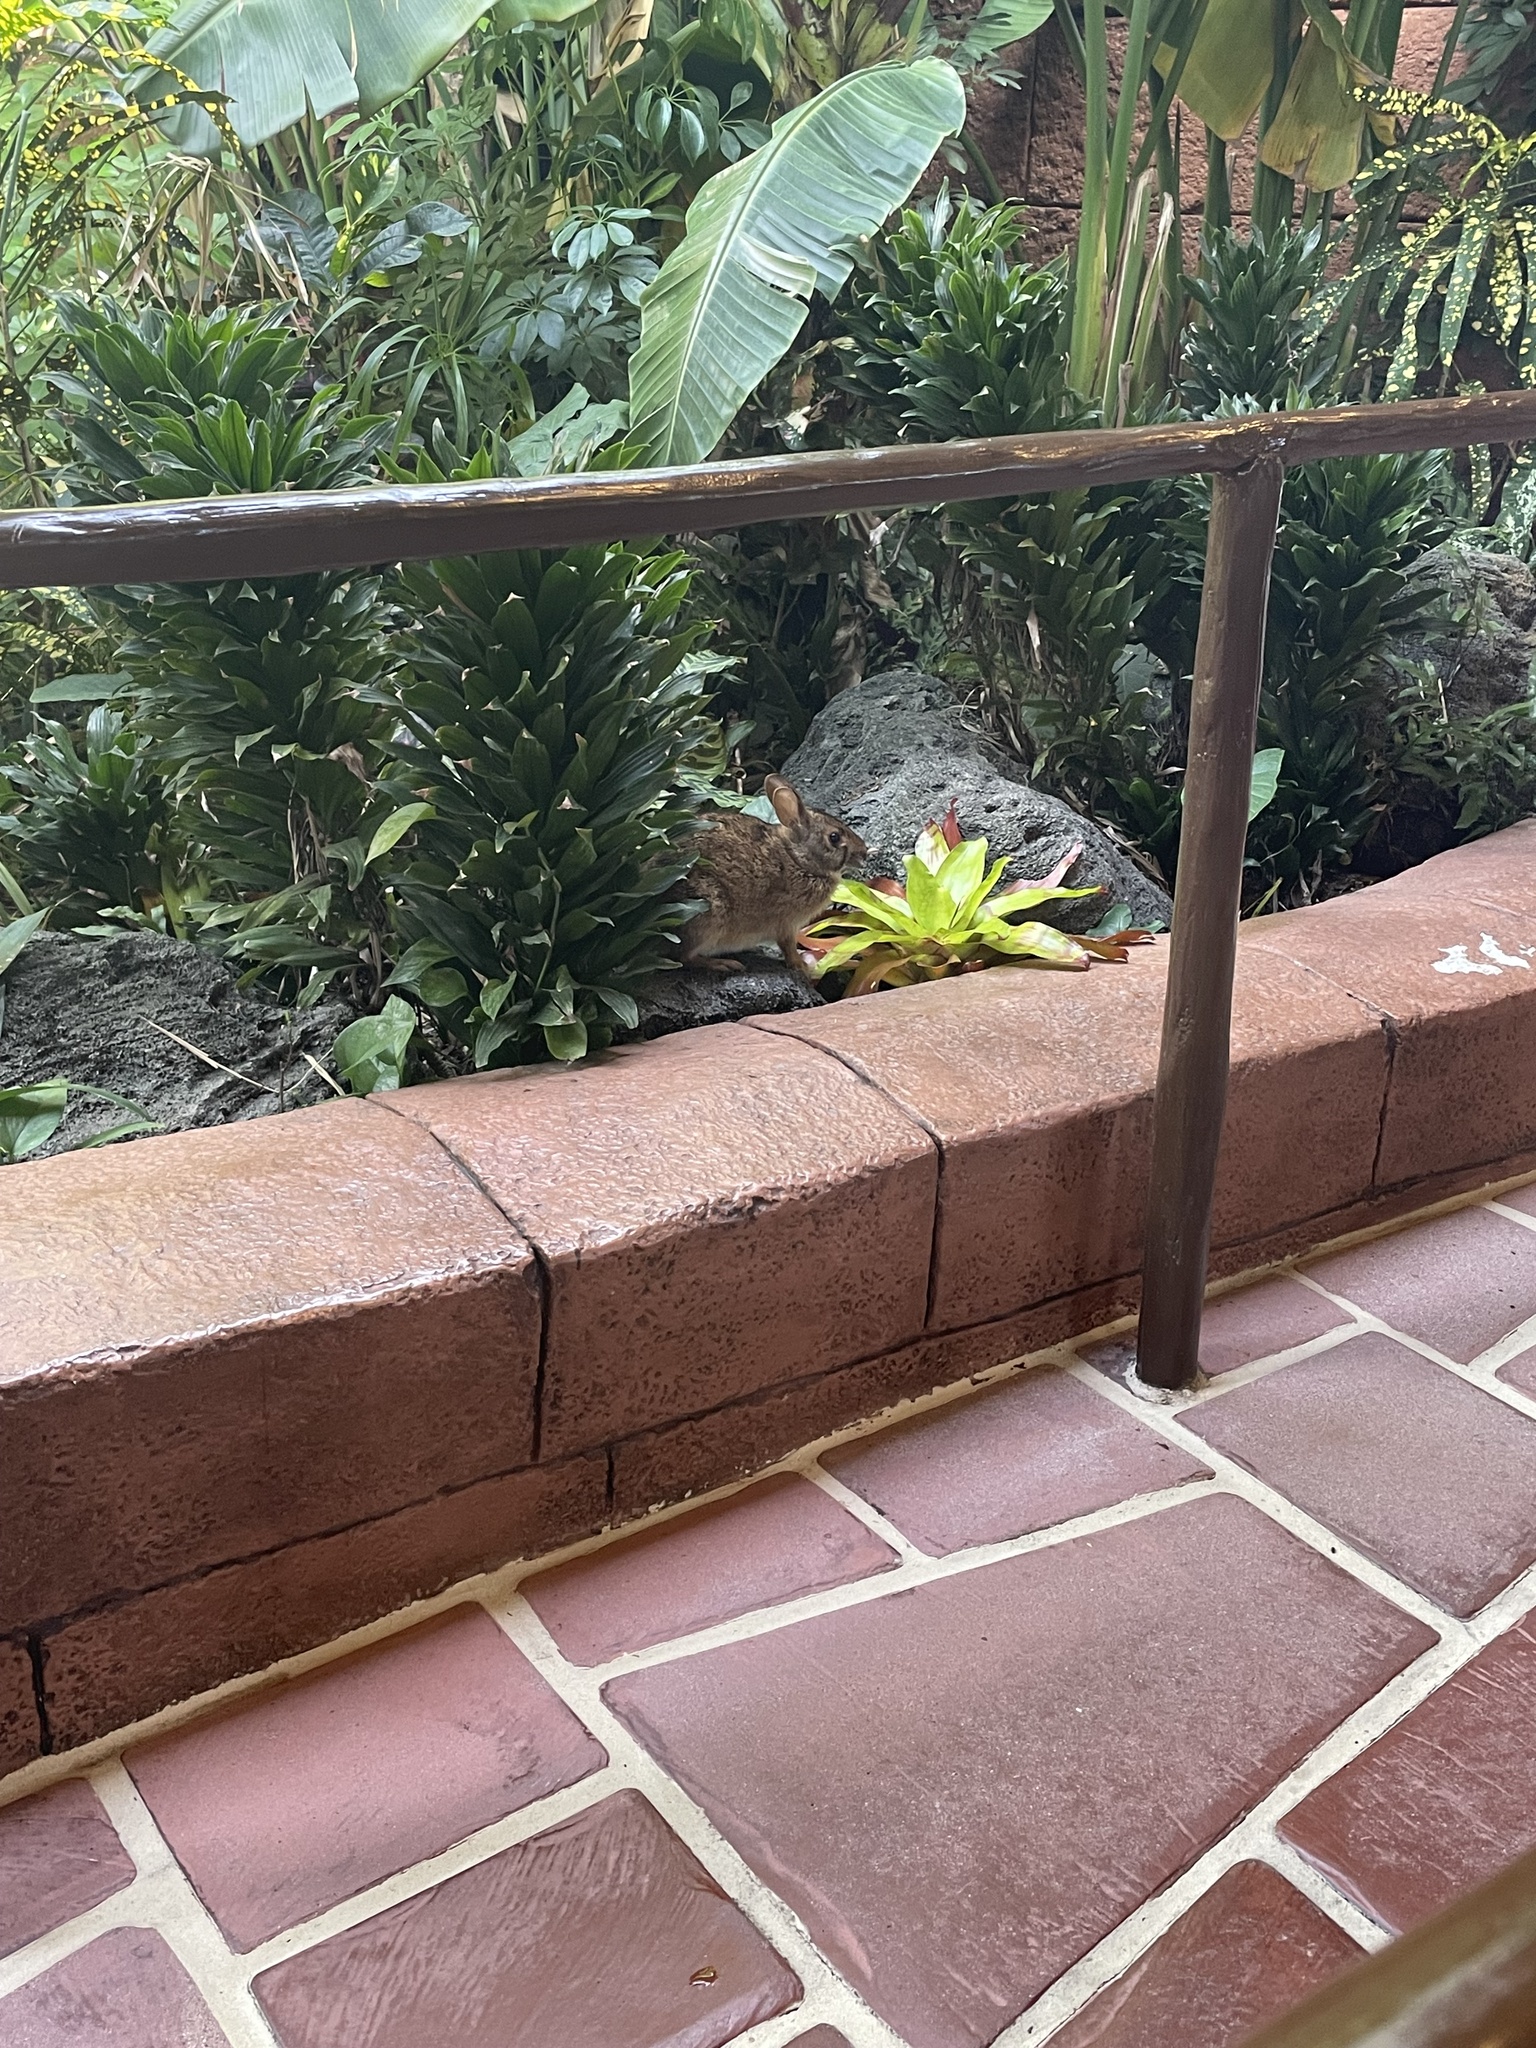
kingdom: Animalia
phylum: Chordata
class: Mammalia
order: Lagomorpha
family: Leporidae
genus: Sylvilagus
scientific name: Sylvilagus palustris
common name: Marsh rabbit
